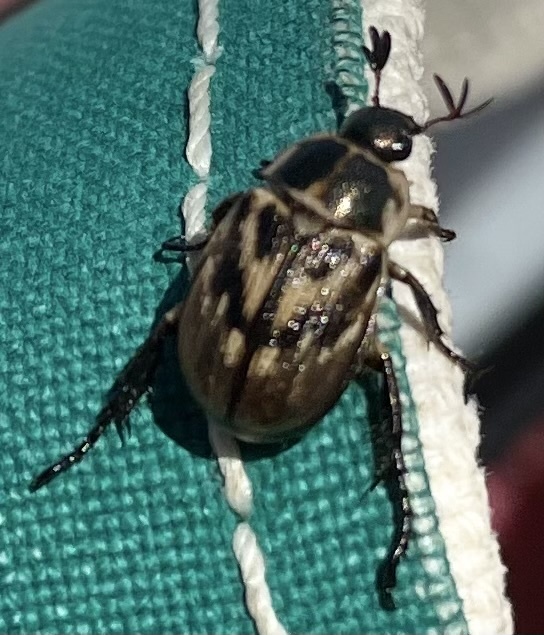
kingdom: Animalia
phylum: Arthropoda
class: Insecta
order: Coleoptera
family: Scarabaeidae
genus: Exomala
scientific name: Exomala orientalis
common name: Oriental beetle
